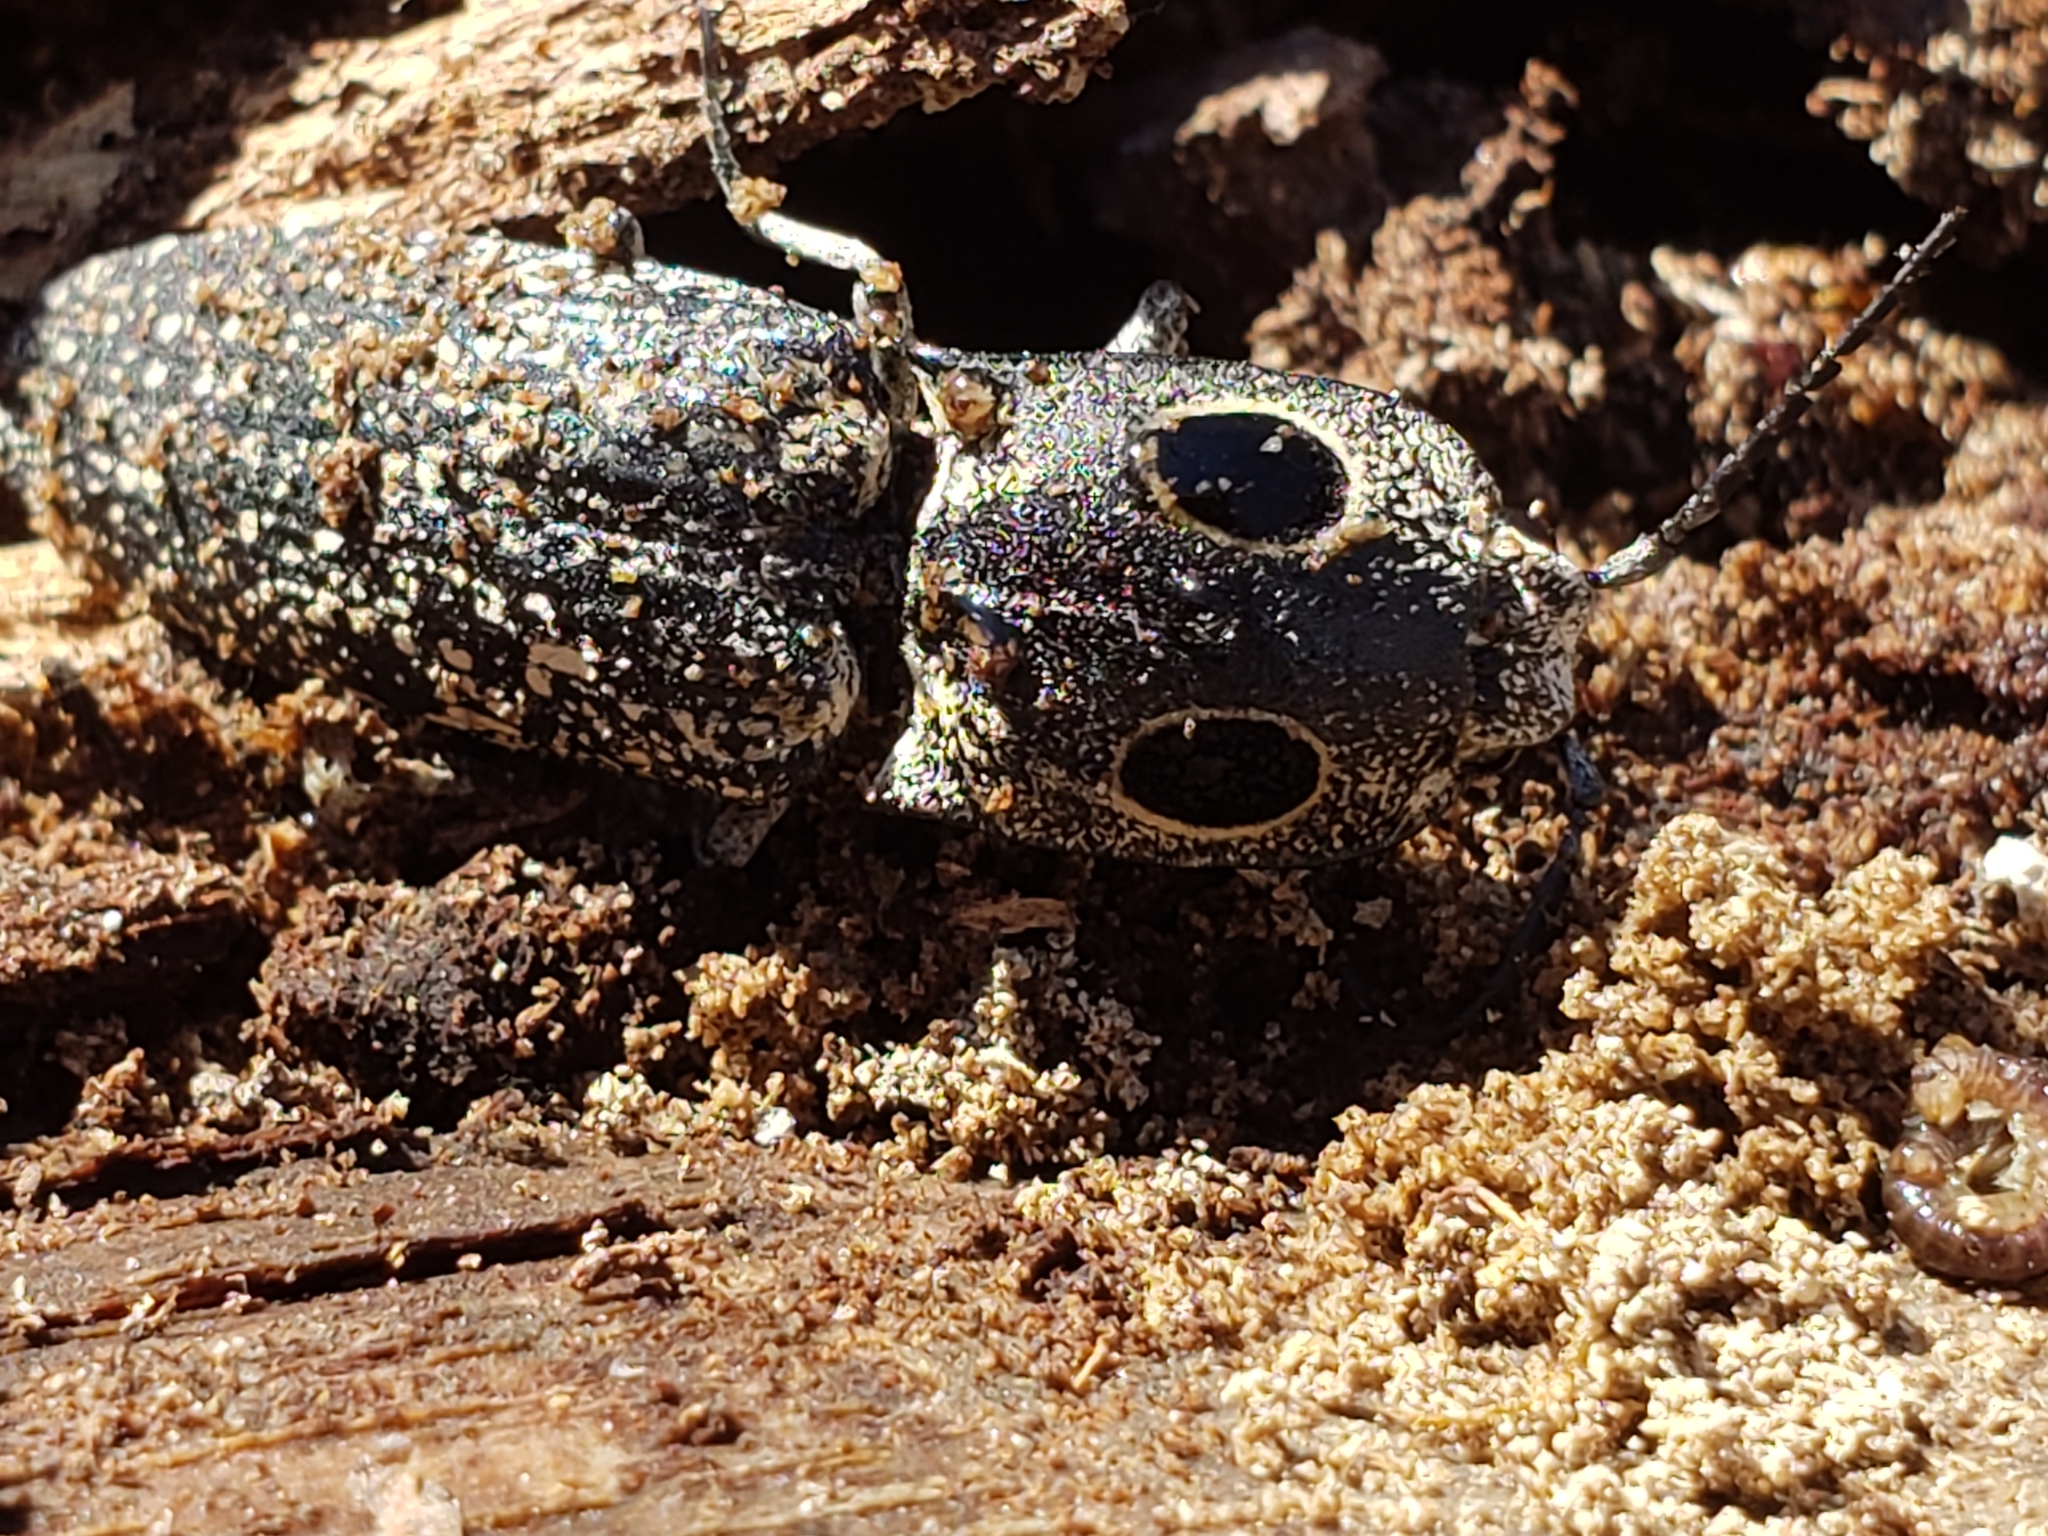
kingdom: Animalia
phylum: Arthropoda
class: Insecta
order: Coleoptera
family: Elateridae
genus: Alaus
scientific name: Alaus oculatus
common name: Eastern eyed click beetle
